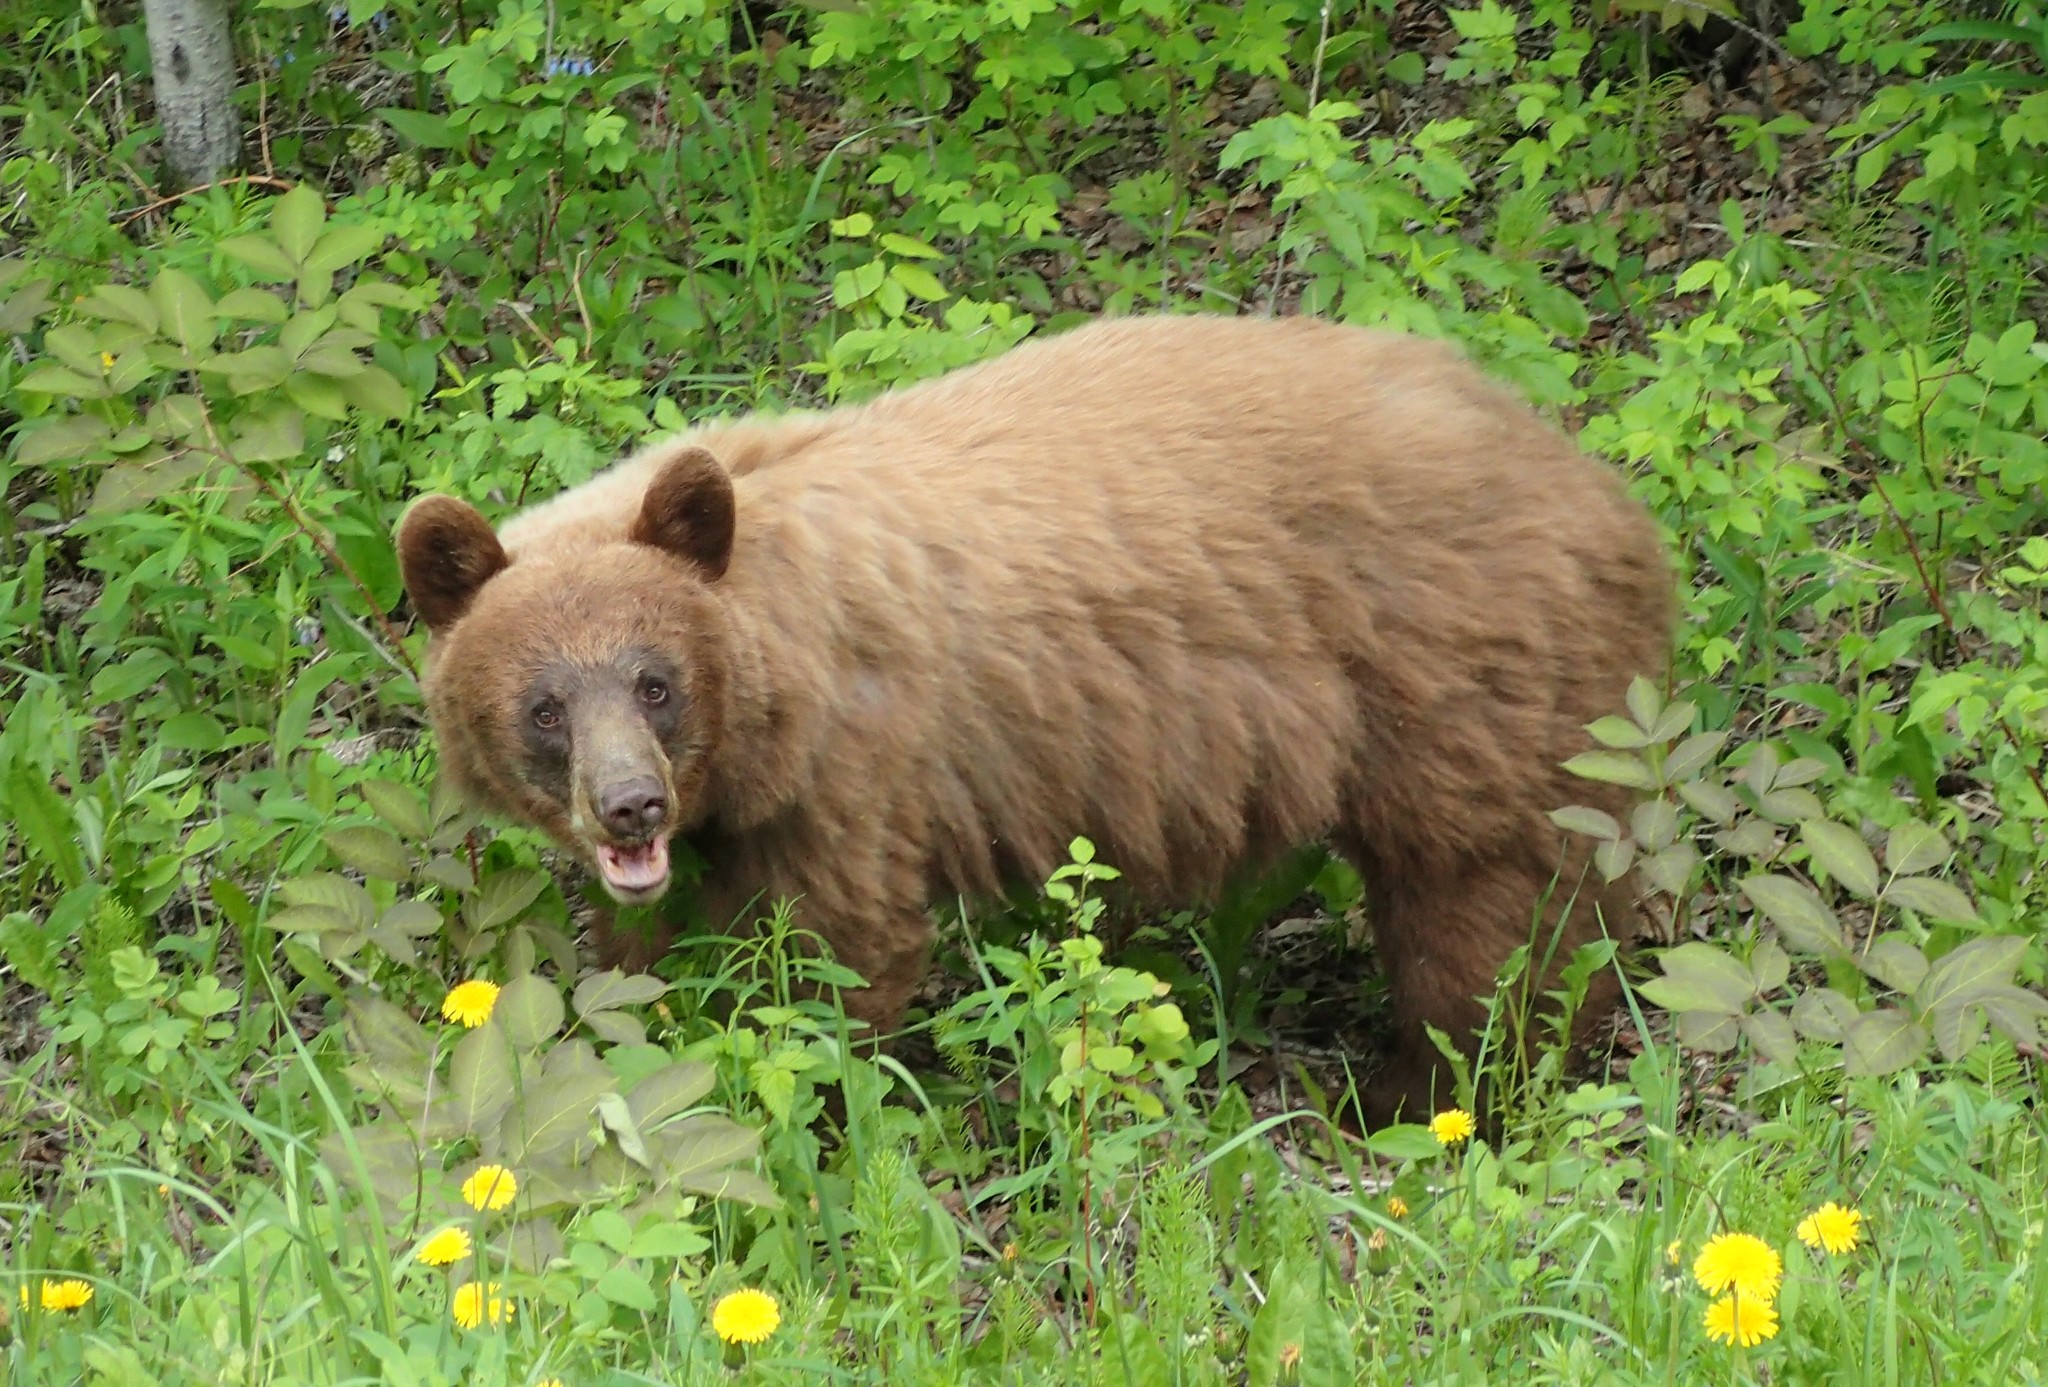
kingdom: Animalia
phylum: Chordata
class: Mammalia
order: Carnivora
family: Ursidae
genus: Ursus
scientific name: Ursus americanus
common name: American black bear
